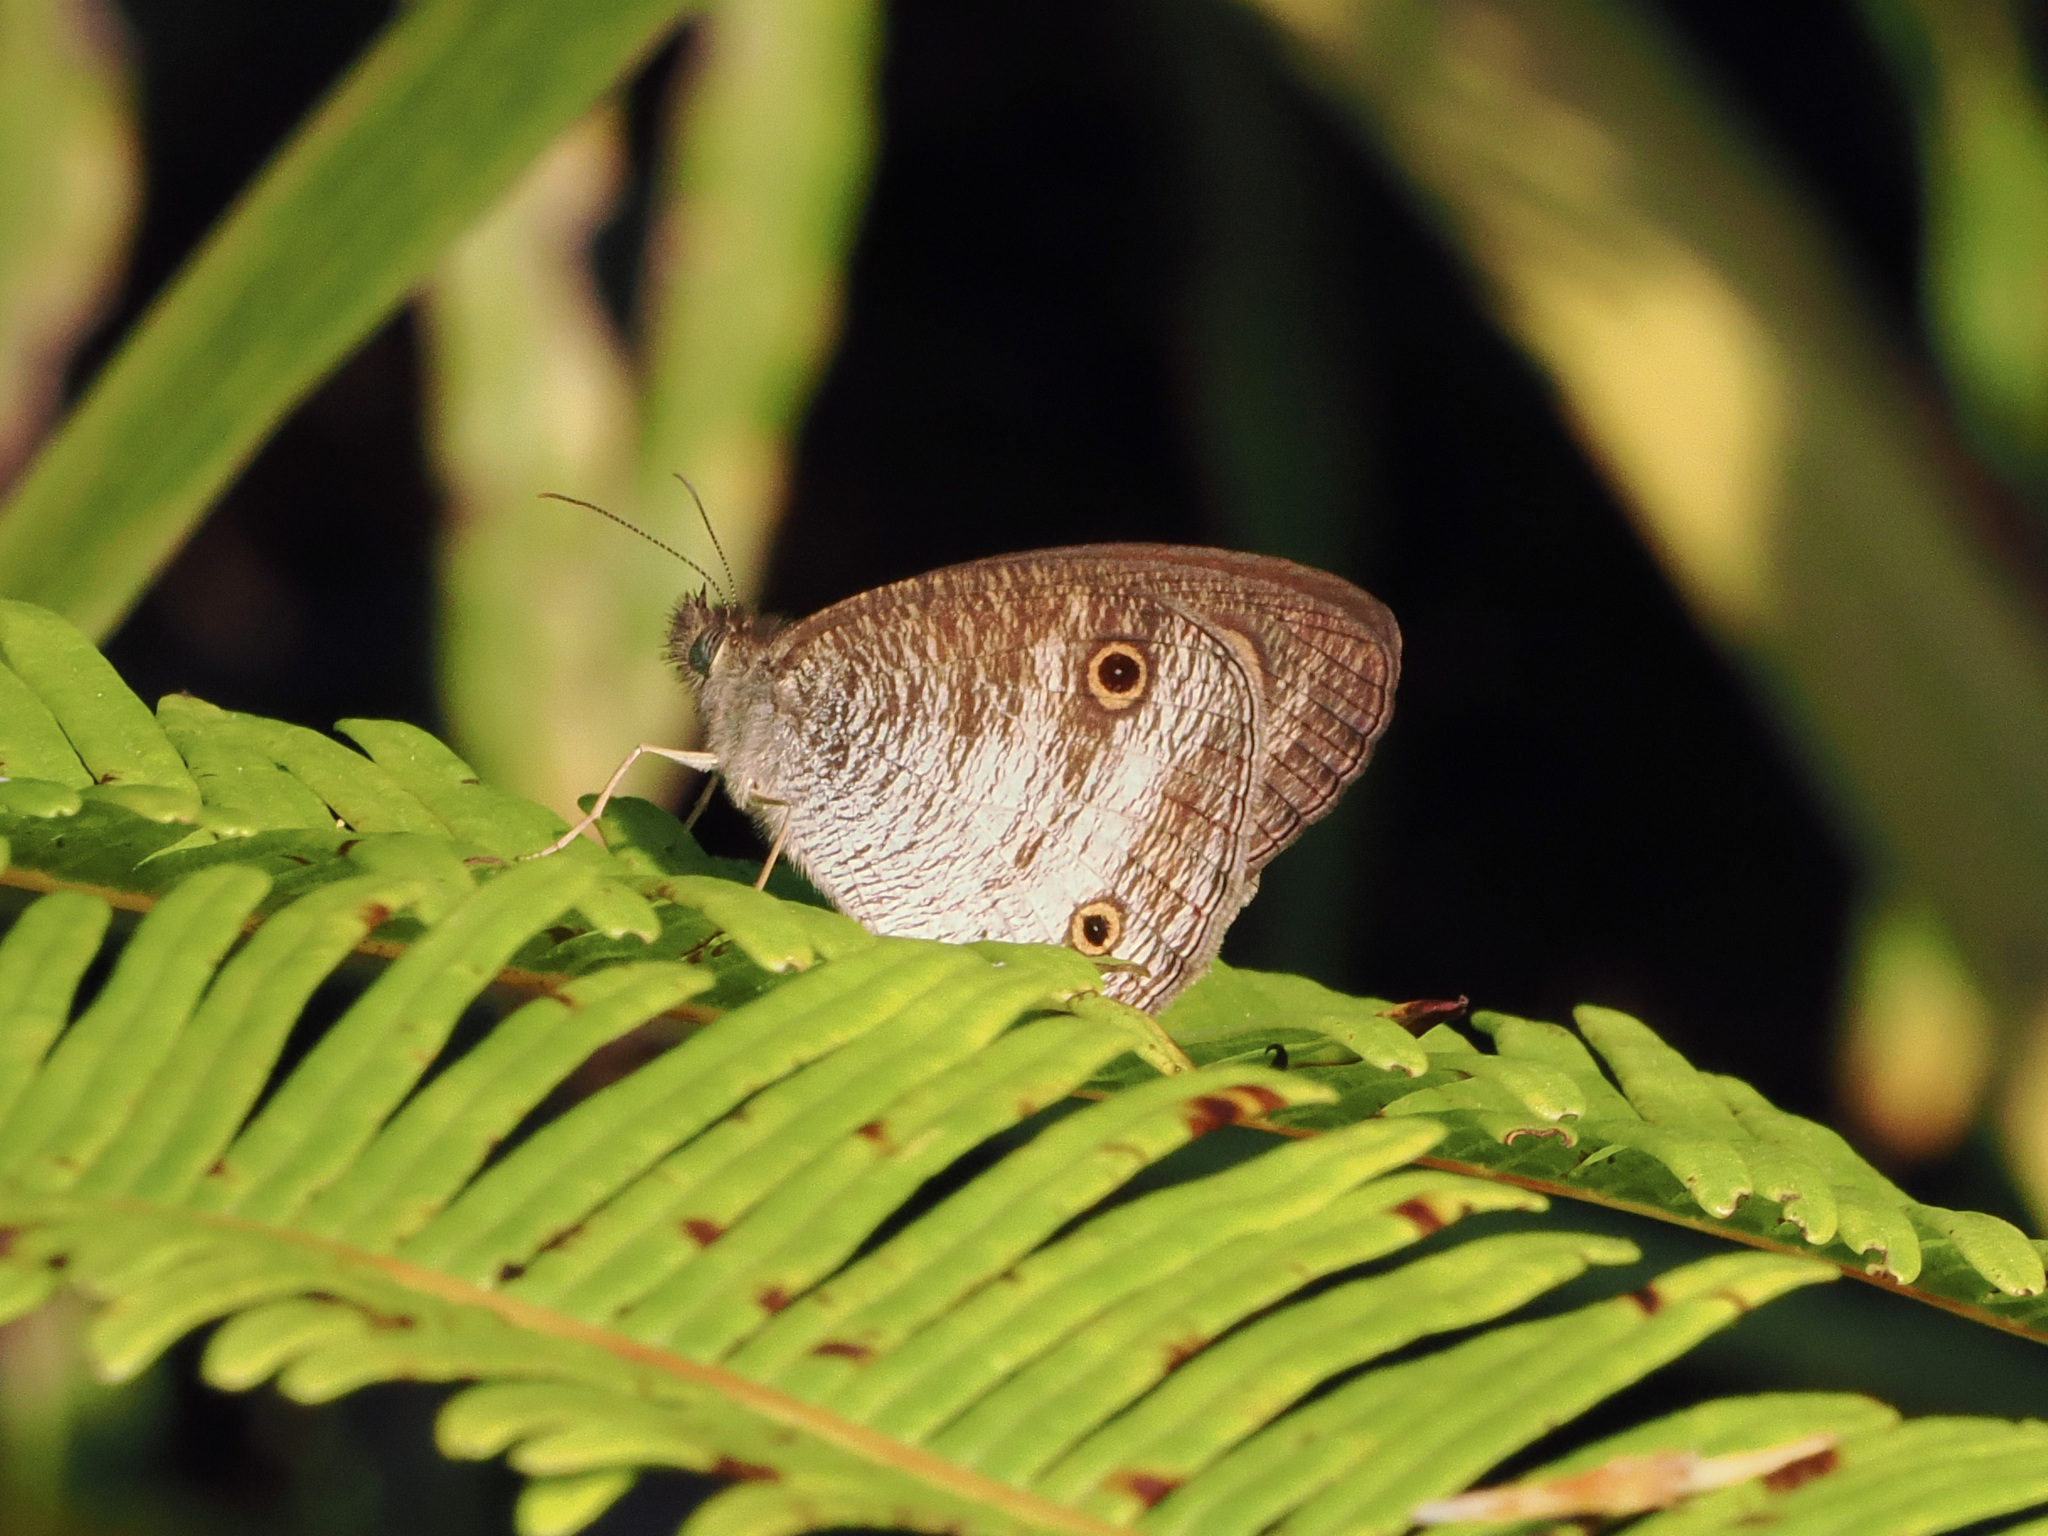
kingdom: Animalia
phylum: Arthropoda
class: Insecta
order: Lepidoptera
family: Nymphalidae
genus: Ypthima
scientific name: Ypthima pandocus
